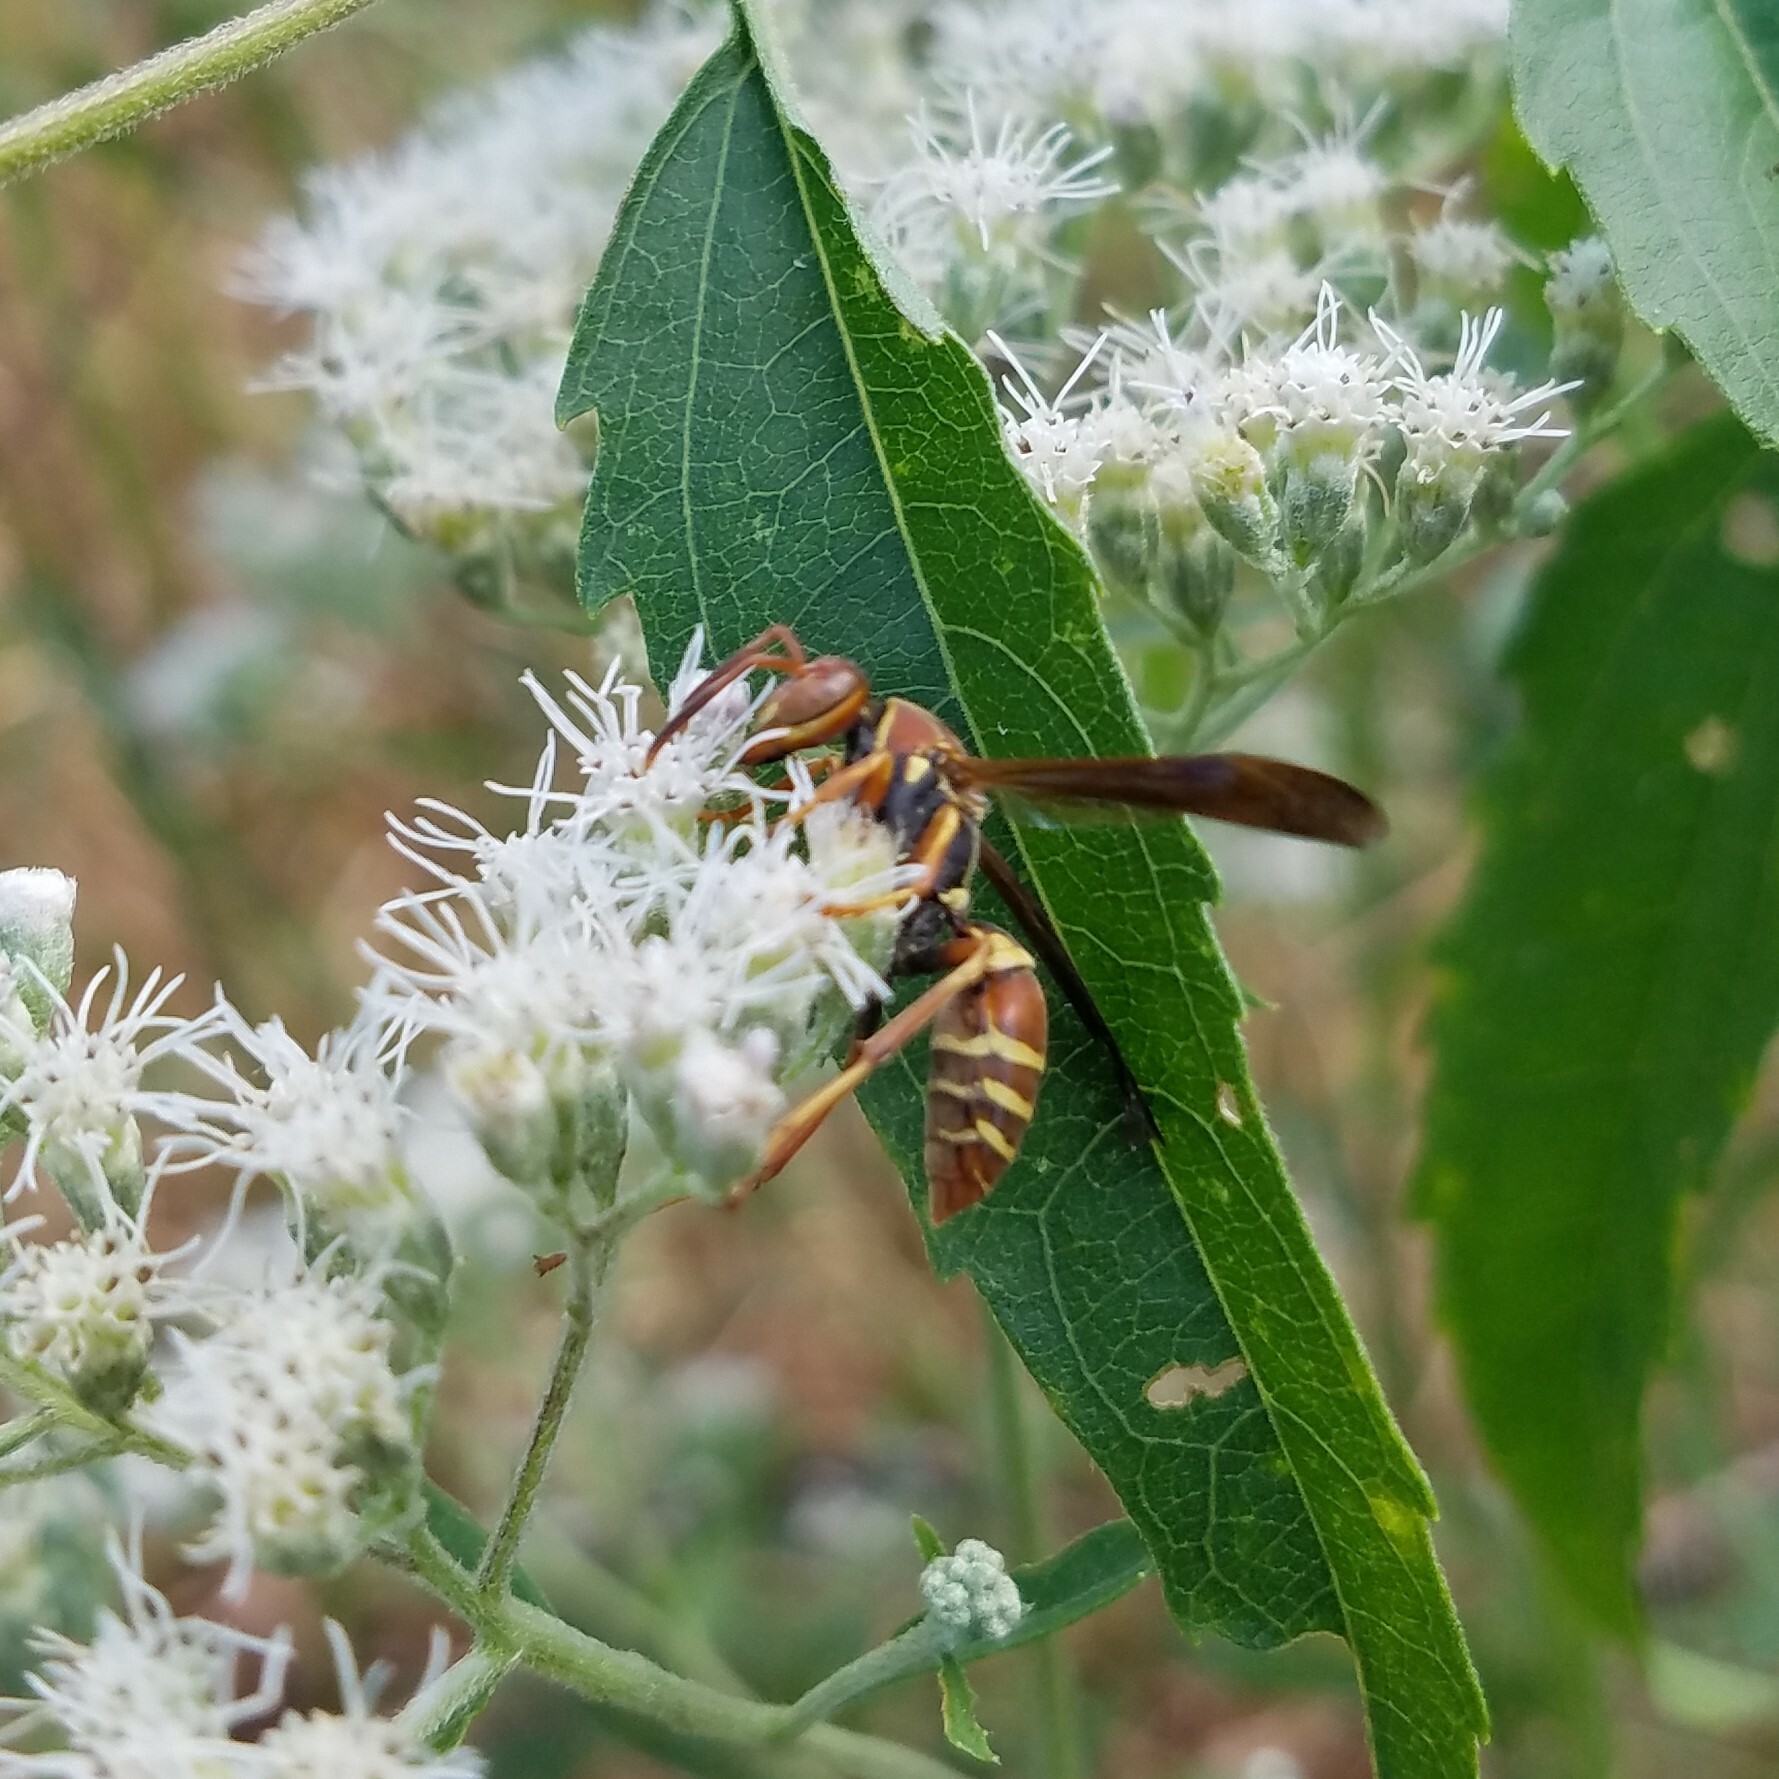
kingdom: Animalia
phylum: Arthropoda
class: Insecta
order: Hymenoptera
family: Eumenidae
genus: Polistes
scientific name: Polistes dorsalis
